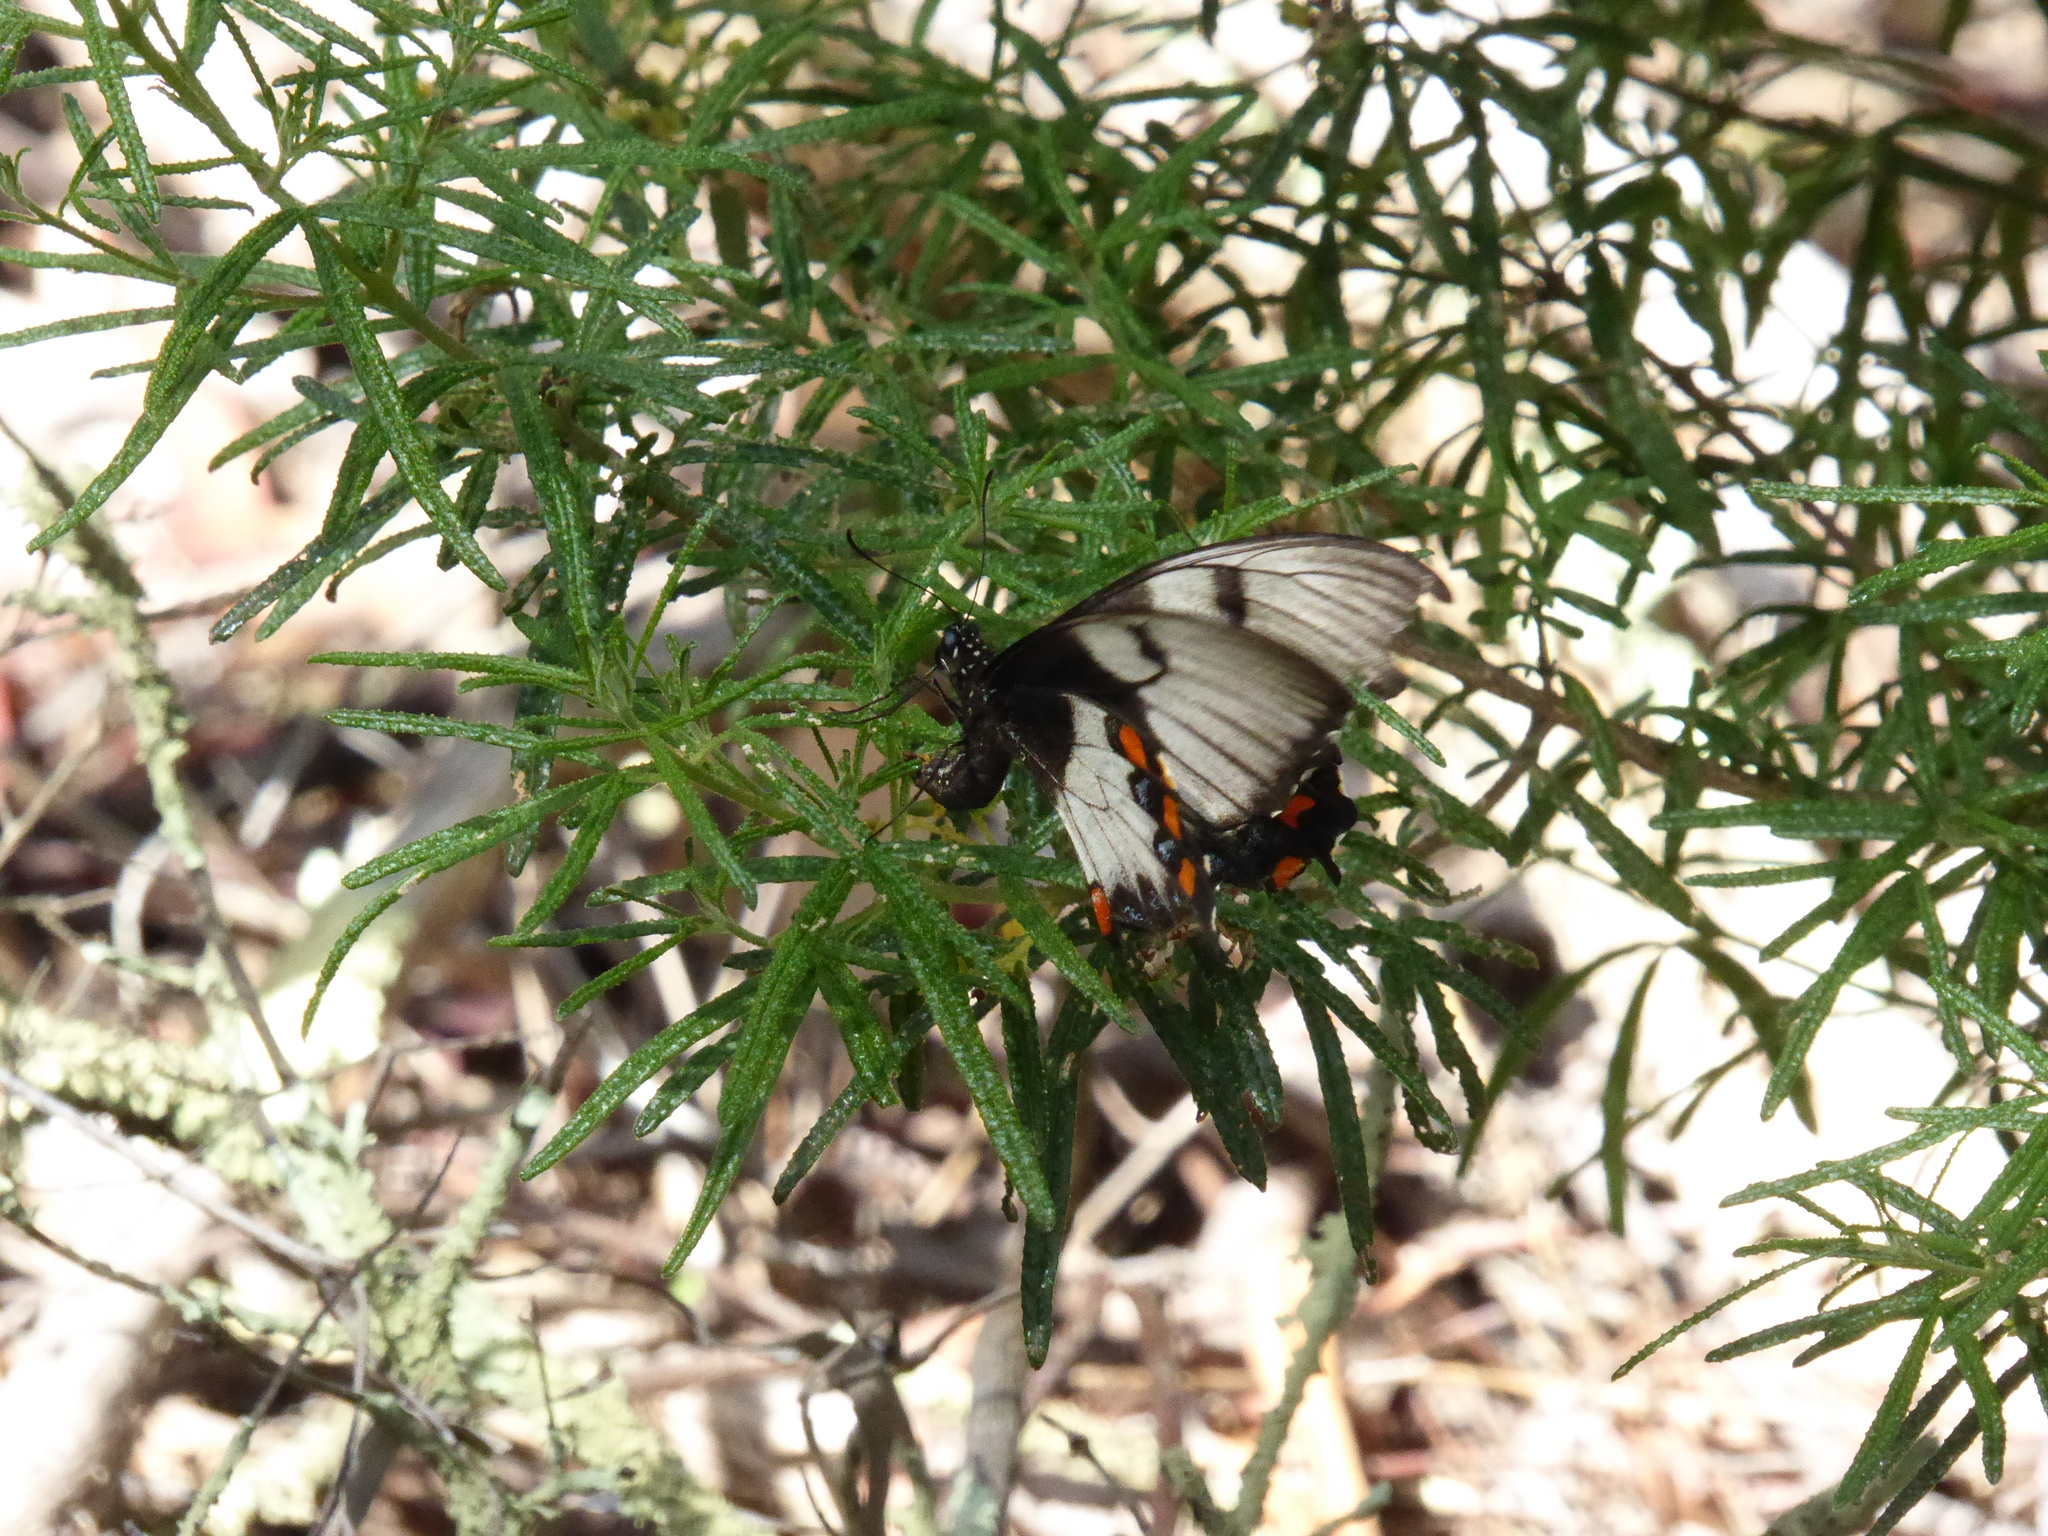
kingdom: Animalia
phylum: Arthropoda
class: Insecta
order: Lepidoptera
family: Papilionidae
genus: Papilio
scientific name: Papilio aegeus
